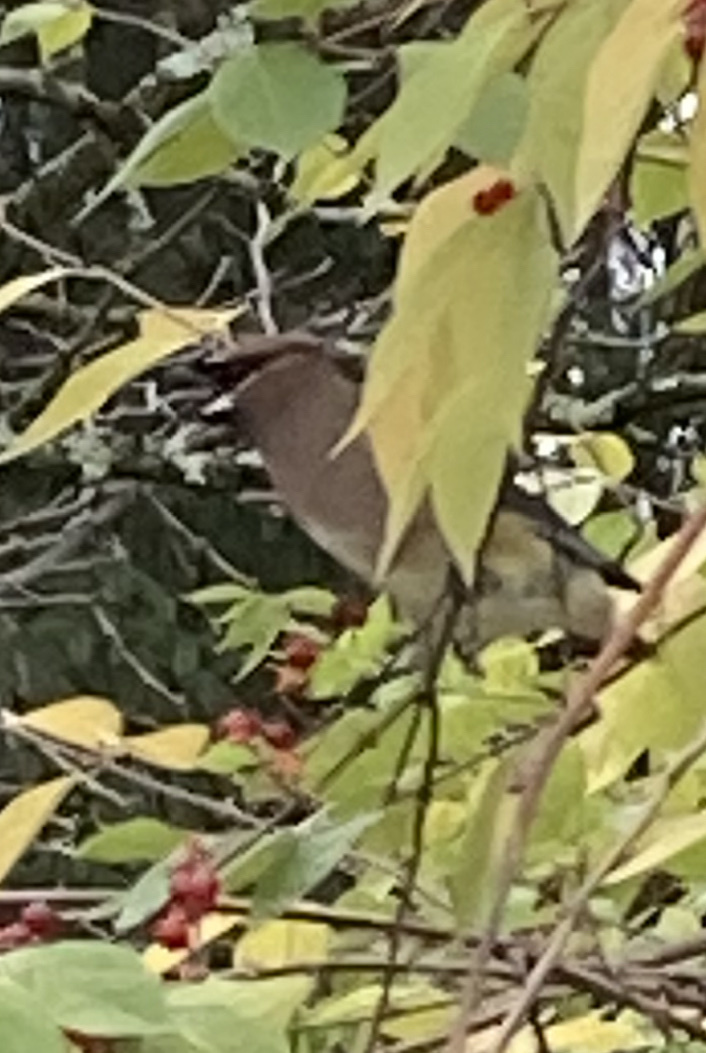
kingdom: Animalia
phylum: Chordata
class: Aves
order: Passeriformes
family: Bombycillidae
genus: Bombycilla
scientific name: Bombycilla cedrorum
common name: Cedar waxwing
